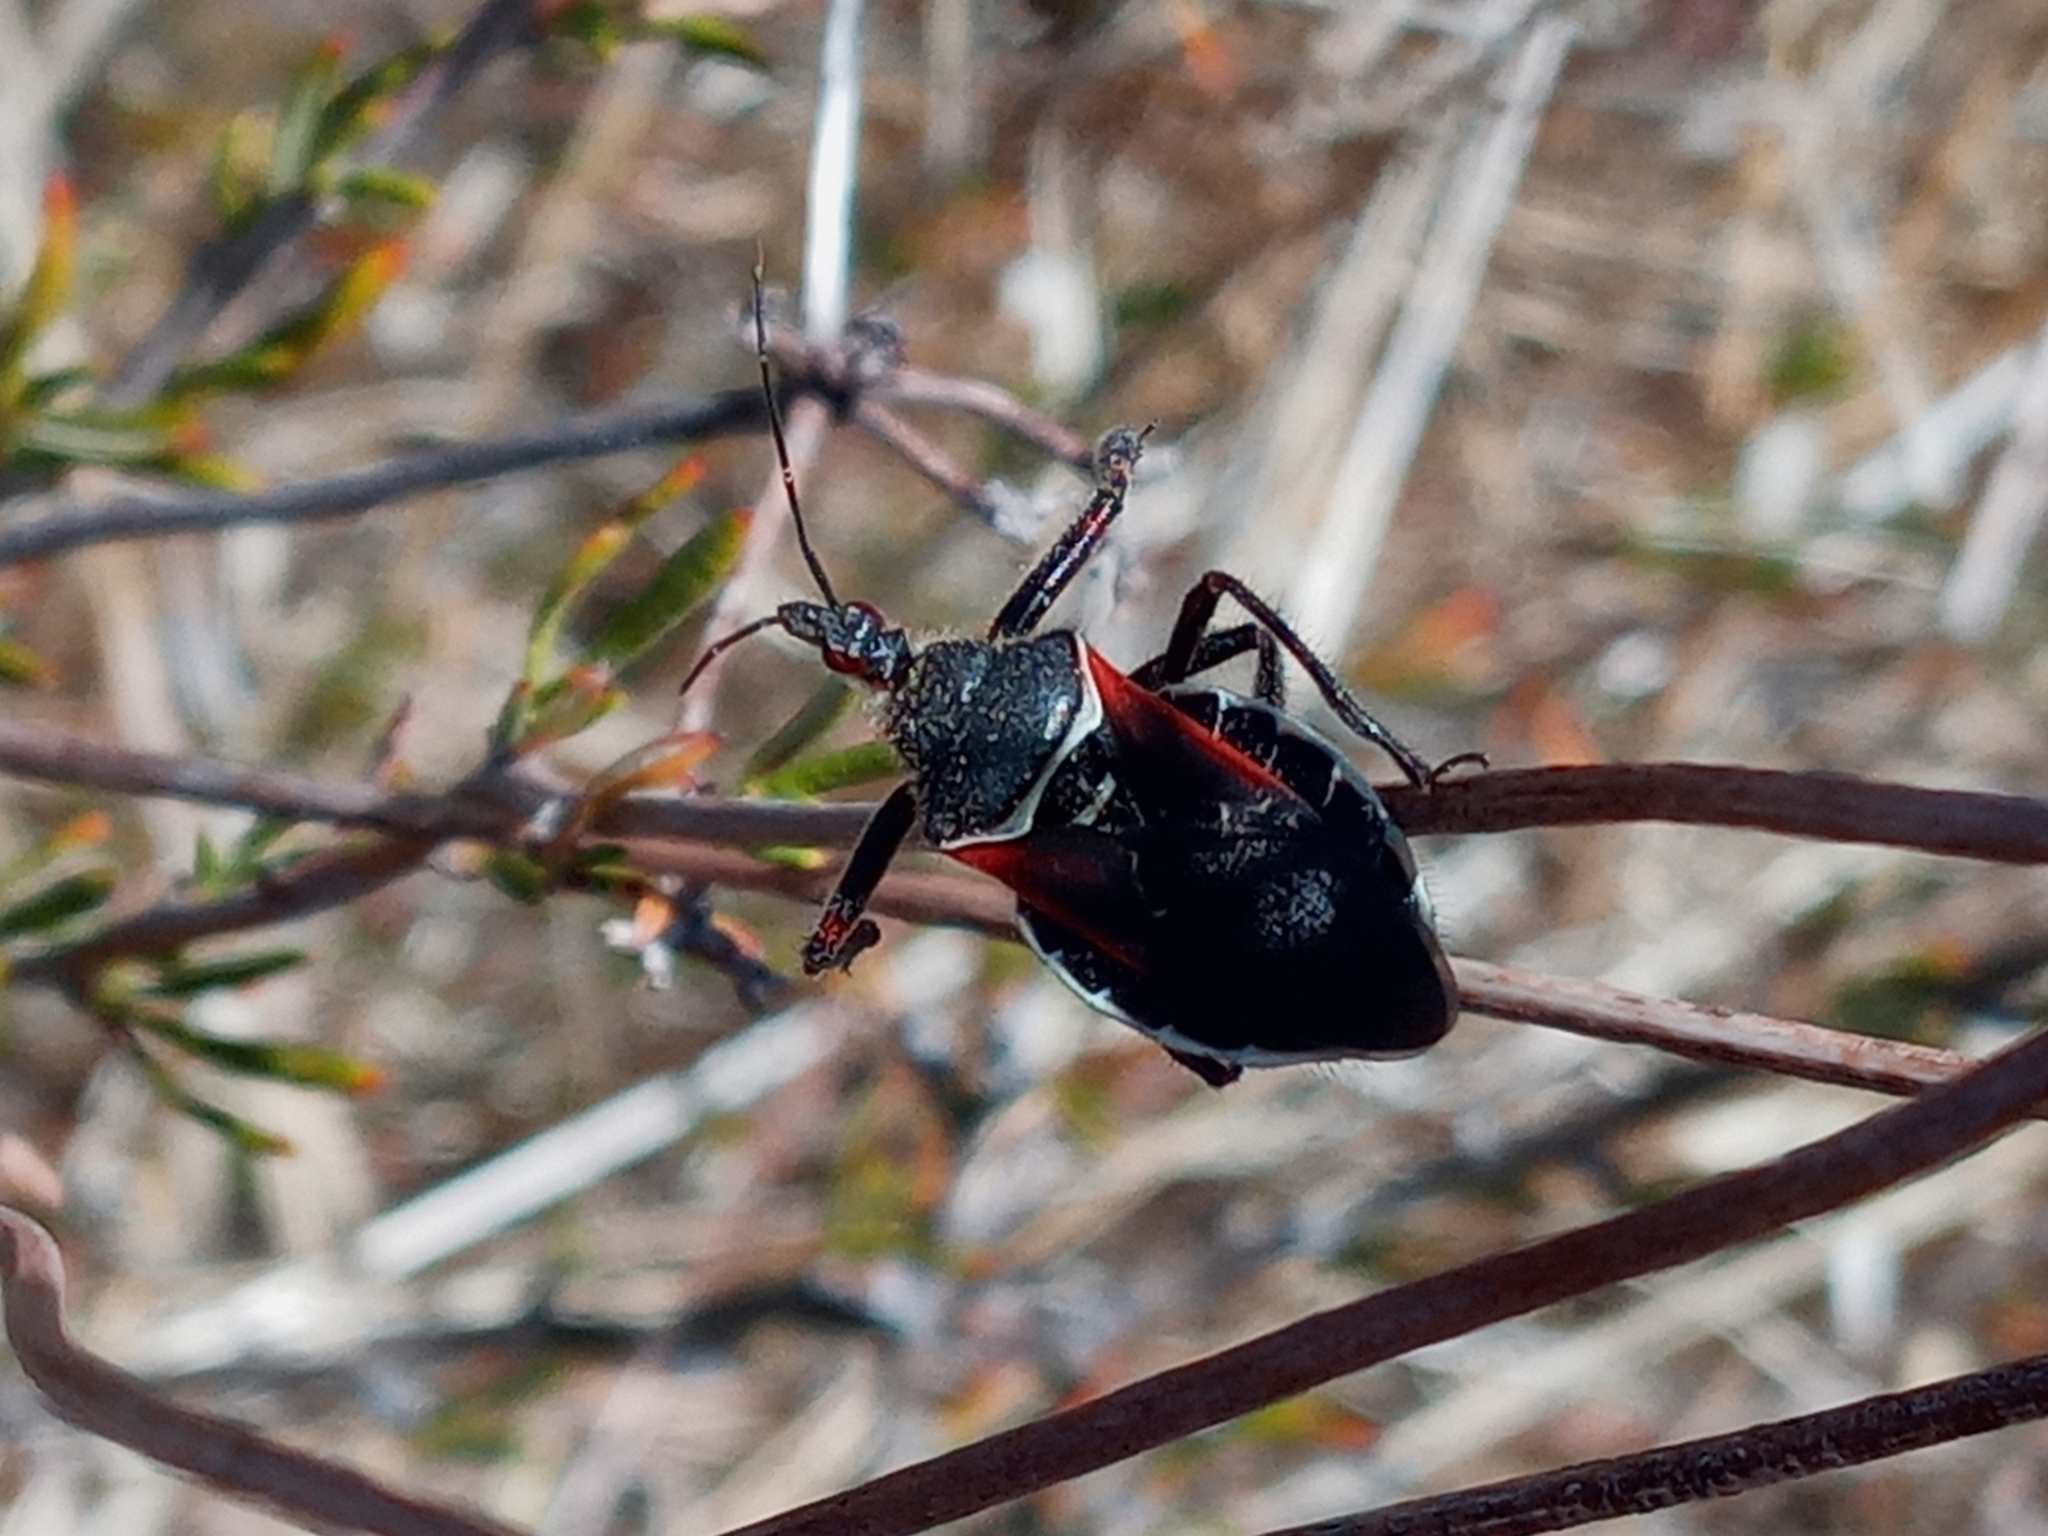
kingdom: Animalia
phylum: Arthropoda
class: Insecta
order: Hemiptera
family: Reduviidae
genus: Apiomerus
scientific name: Apiomerus californicus
